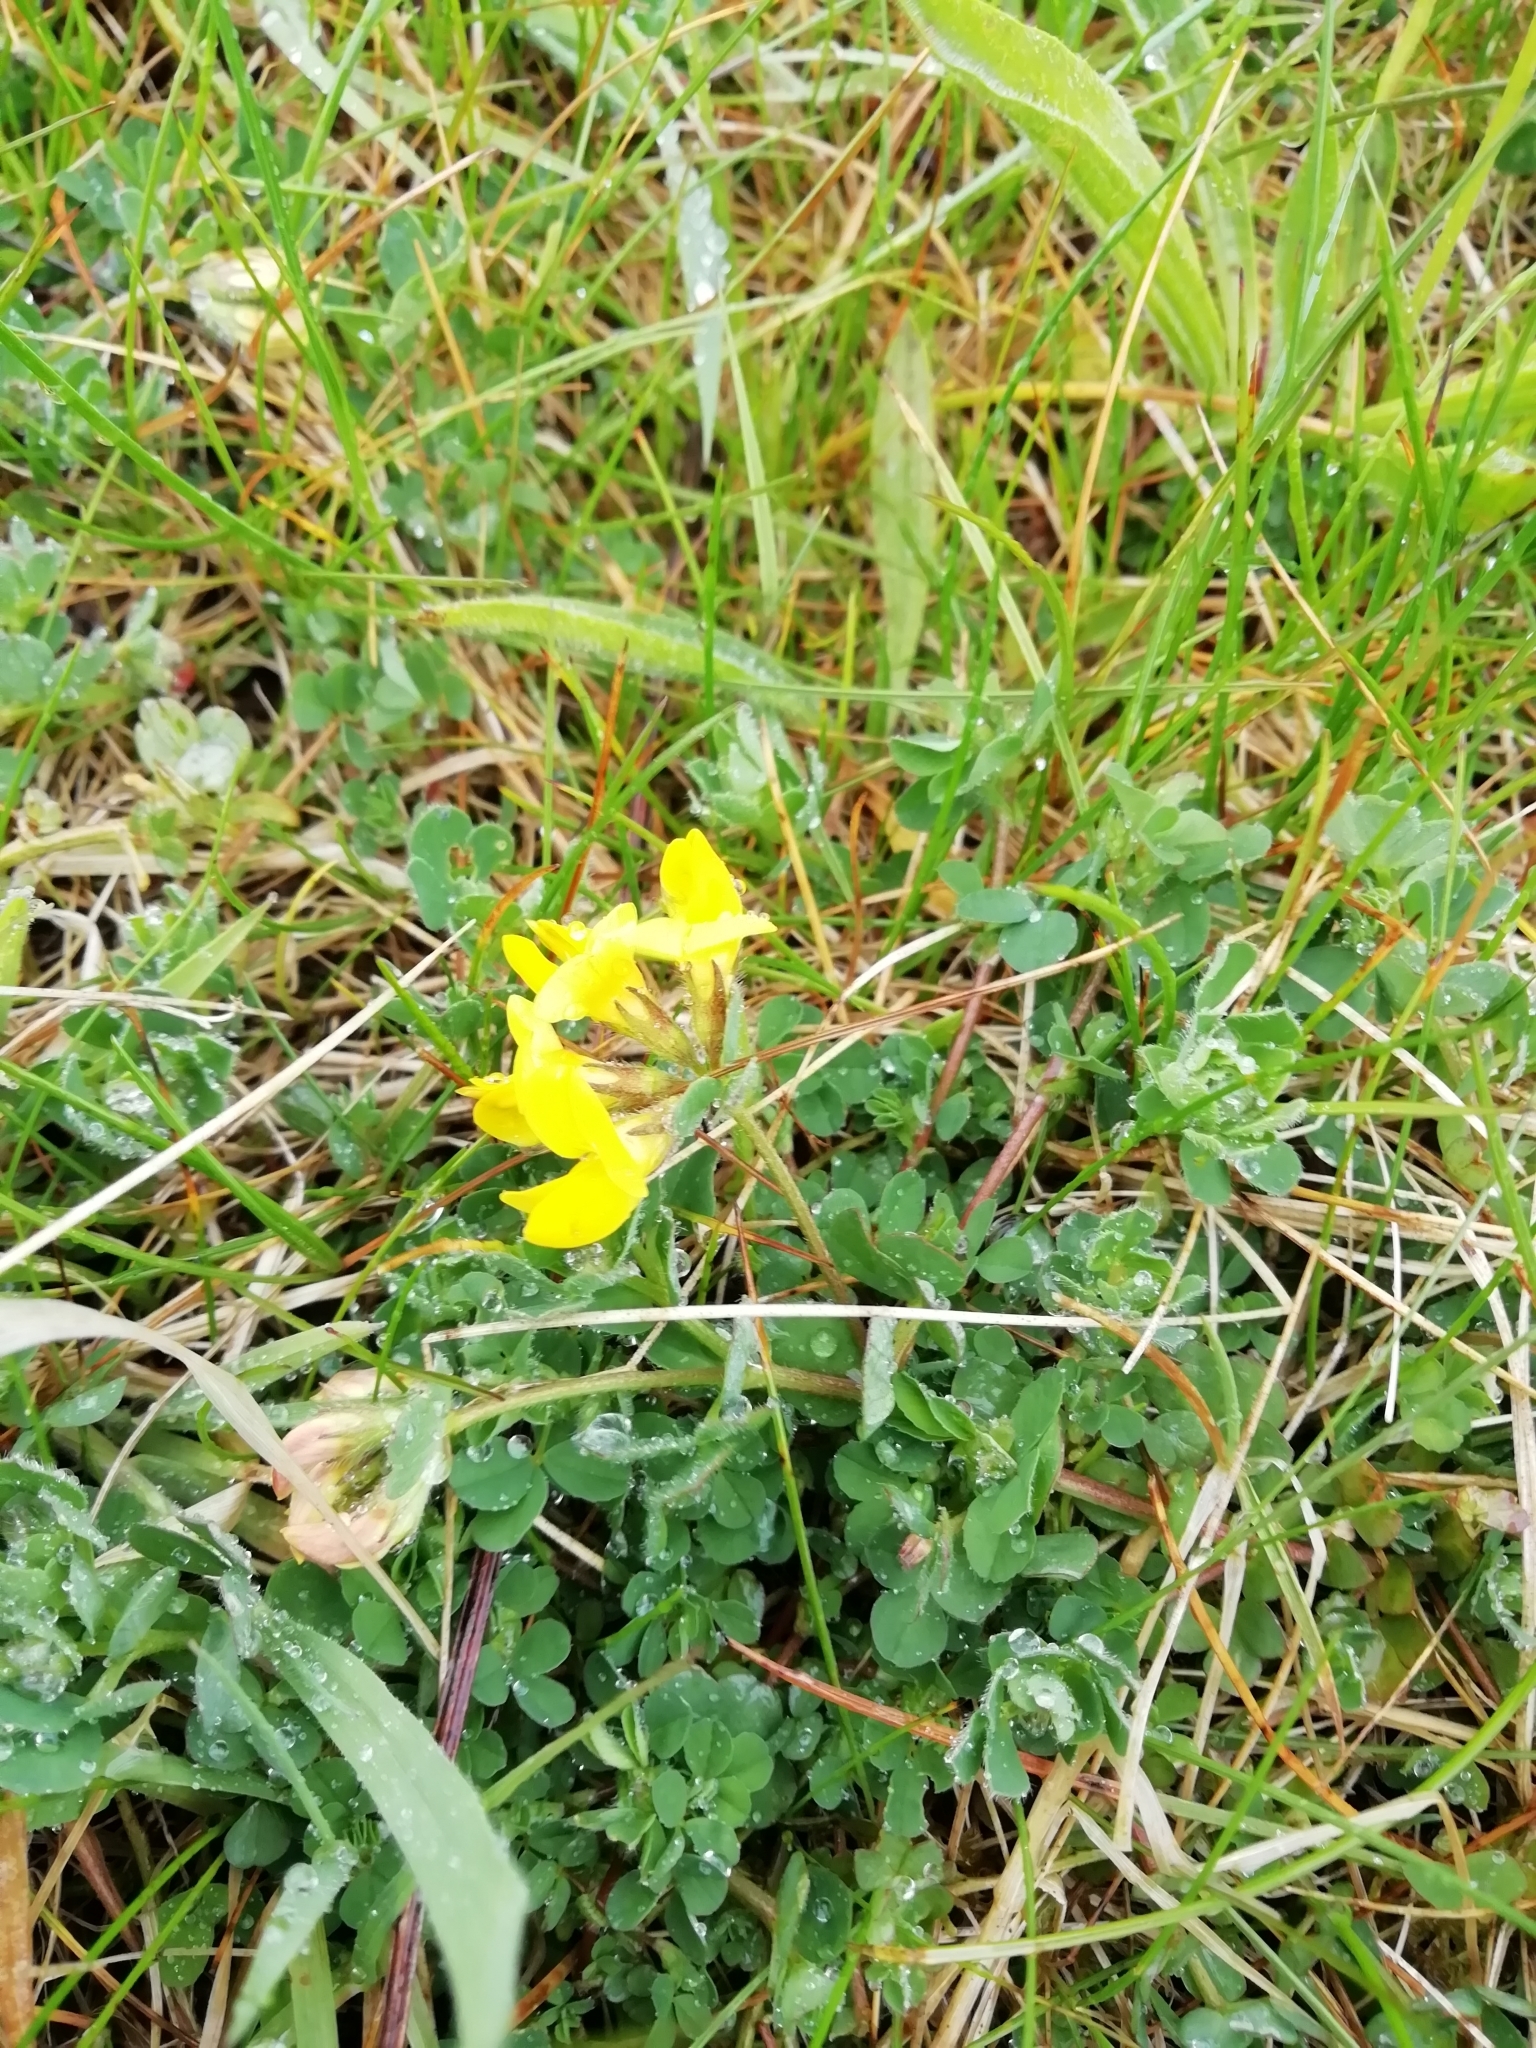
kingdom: Plantae
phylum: Tracheophyta
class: Magnoliopsida
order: Fabales
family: Fabaceae
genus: Lotus
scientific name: Lotus corniculatus
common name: Common bird's-foot-trefoil
